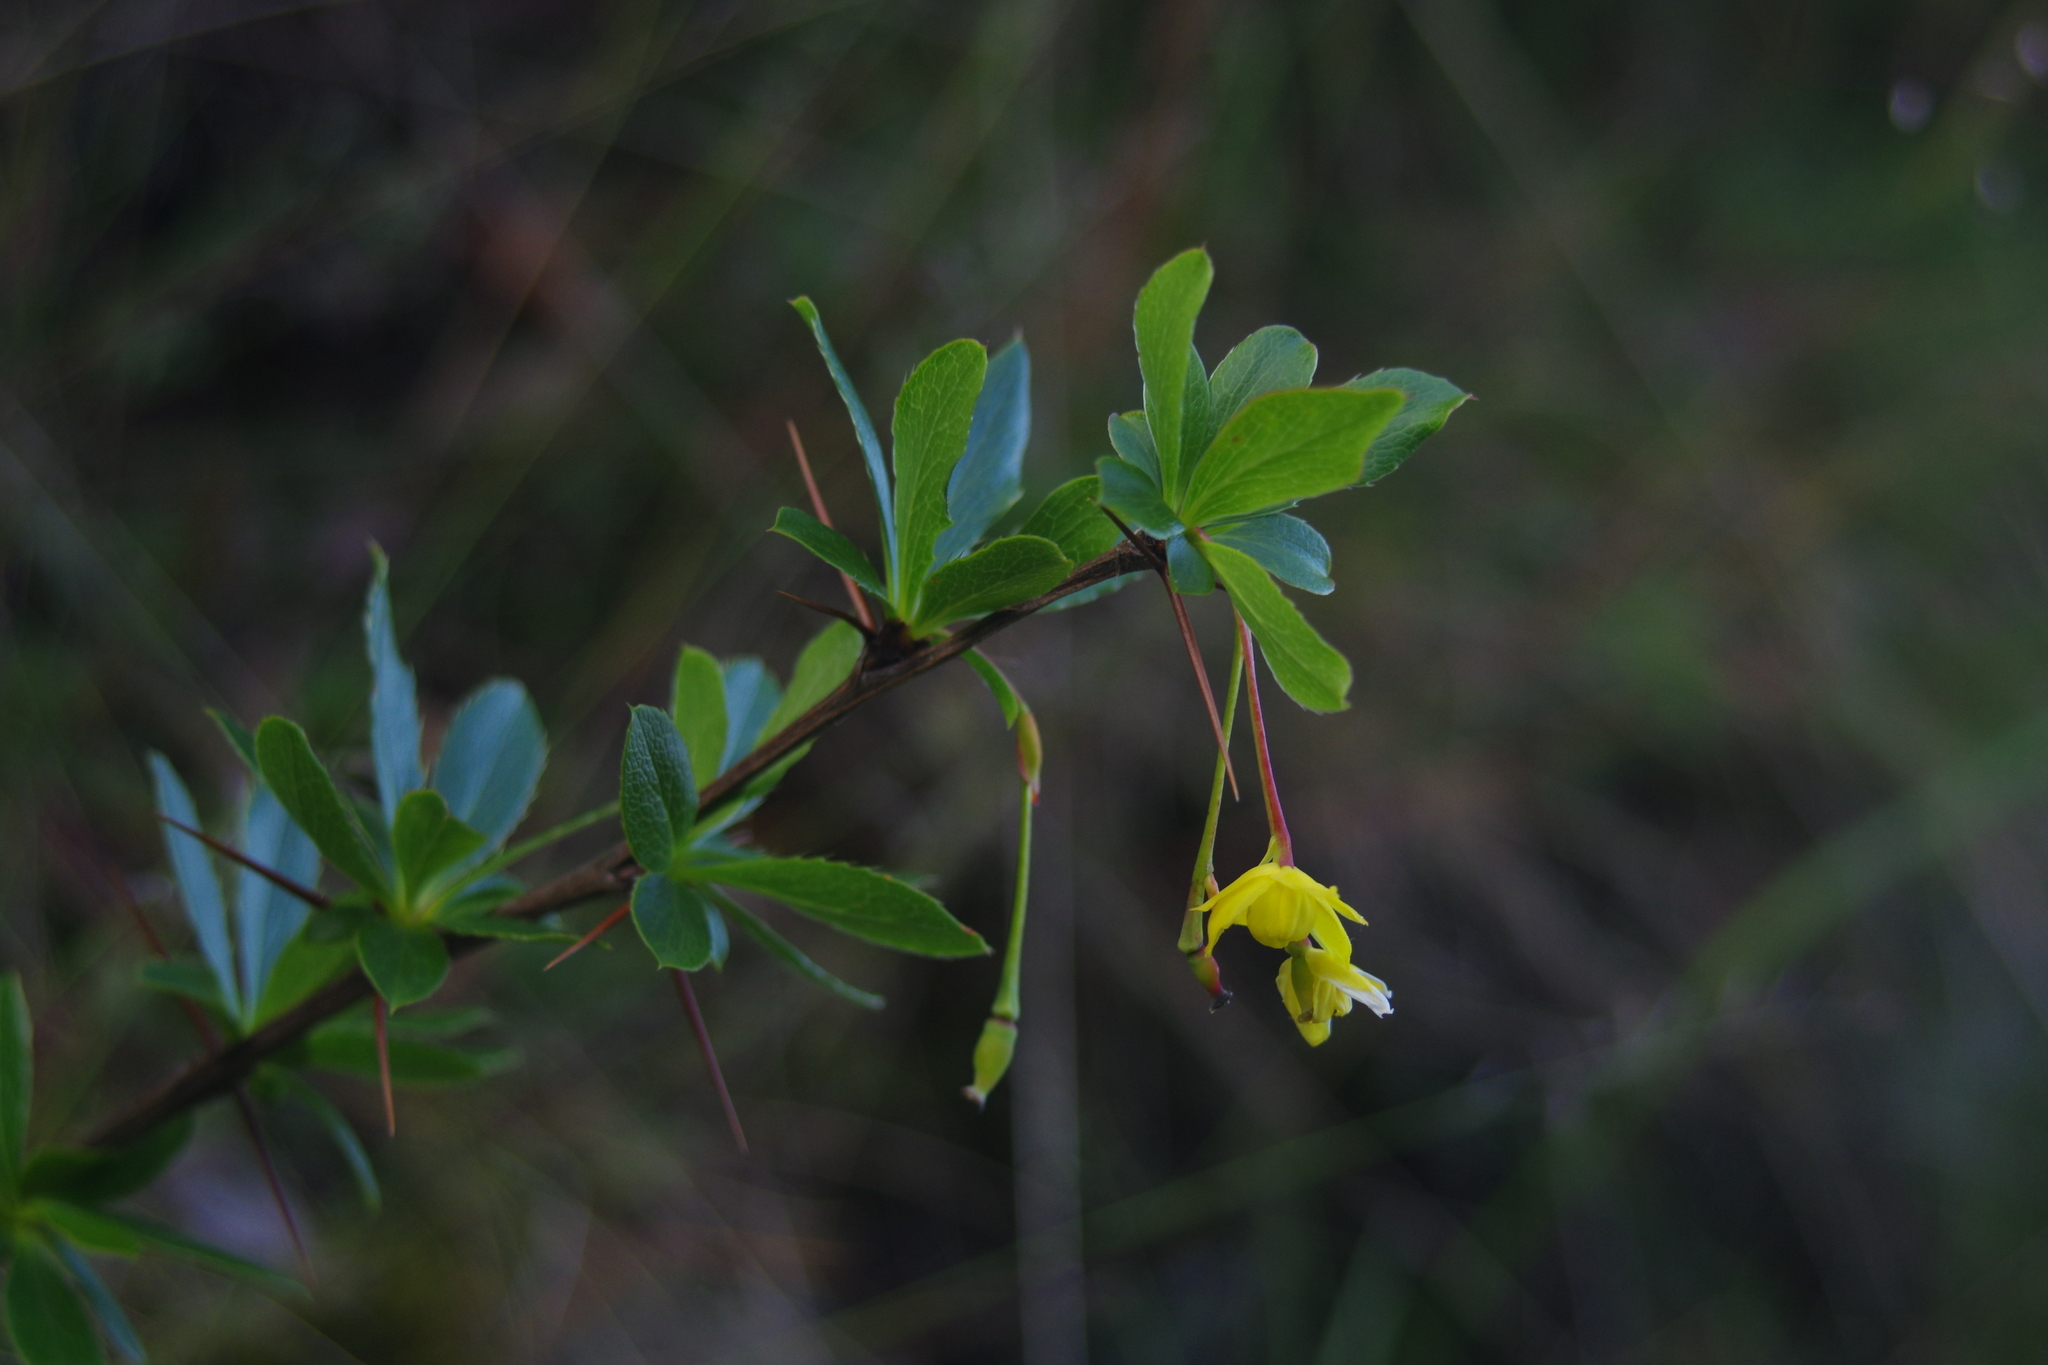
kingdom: Plantae
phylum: Tracheophyta
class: Magnoliopsida
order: Ranunculales
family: Berberidaceae
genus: Berberis
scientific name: Berberis morrisonensis
